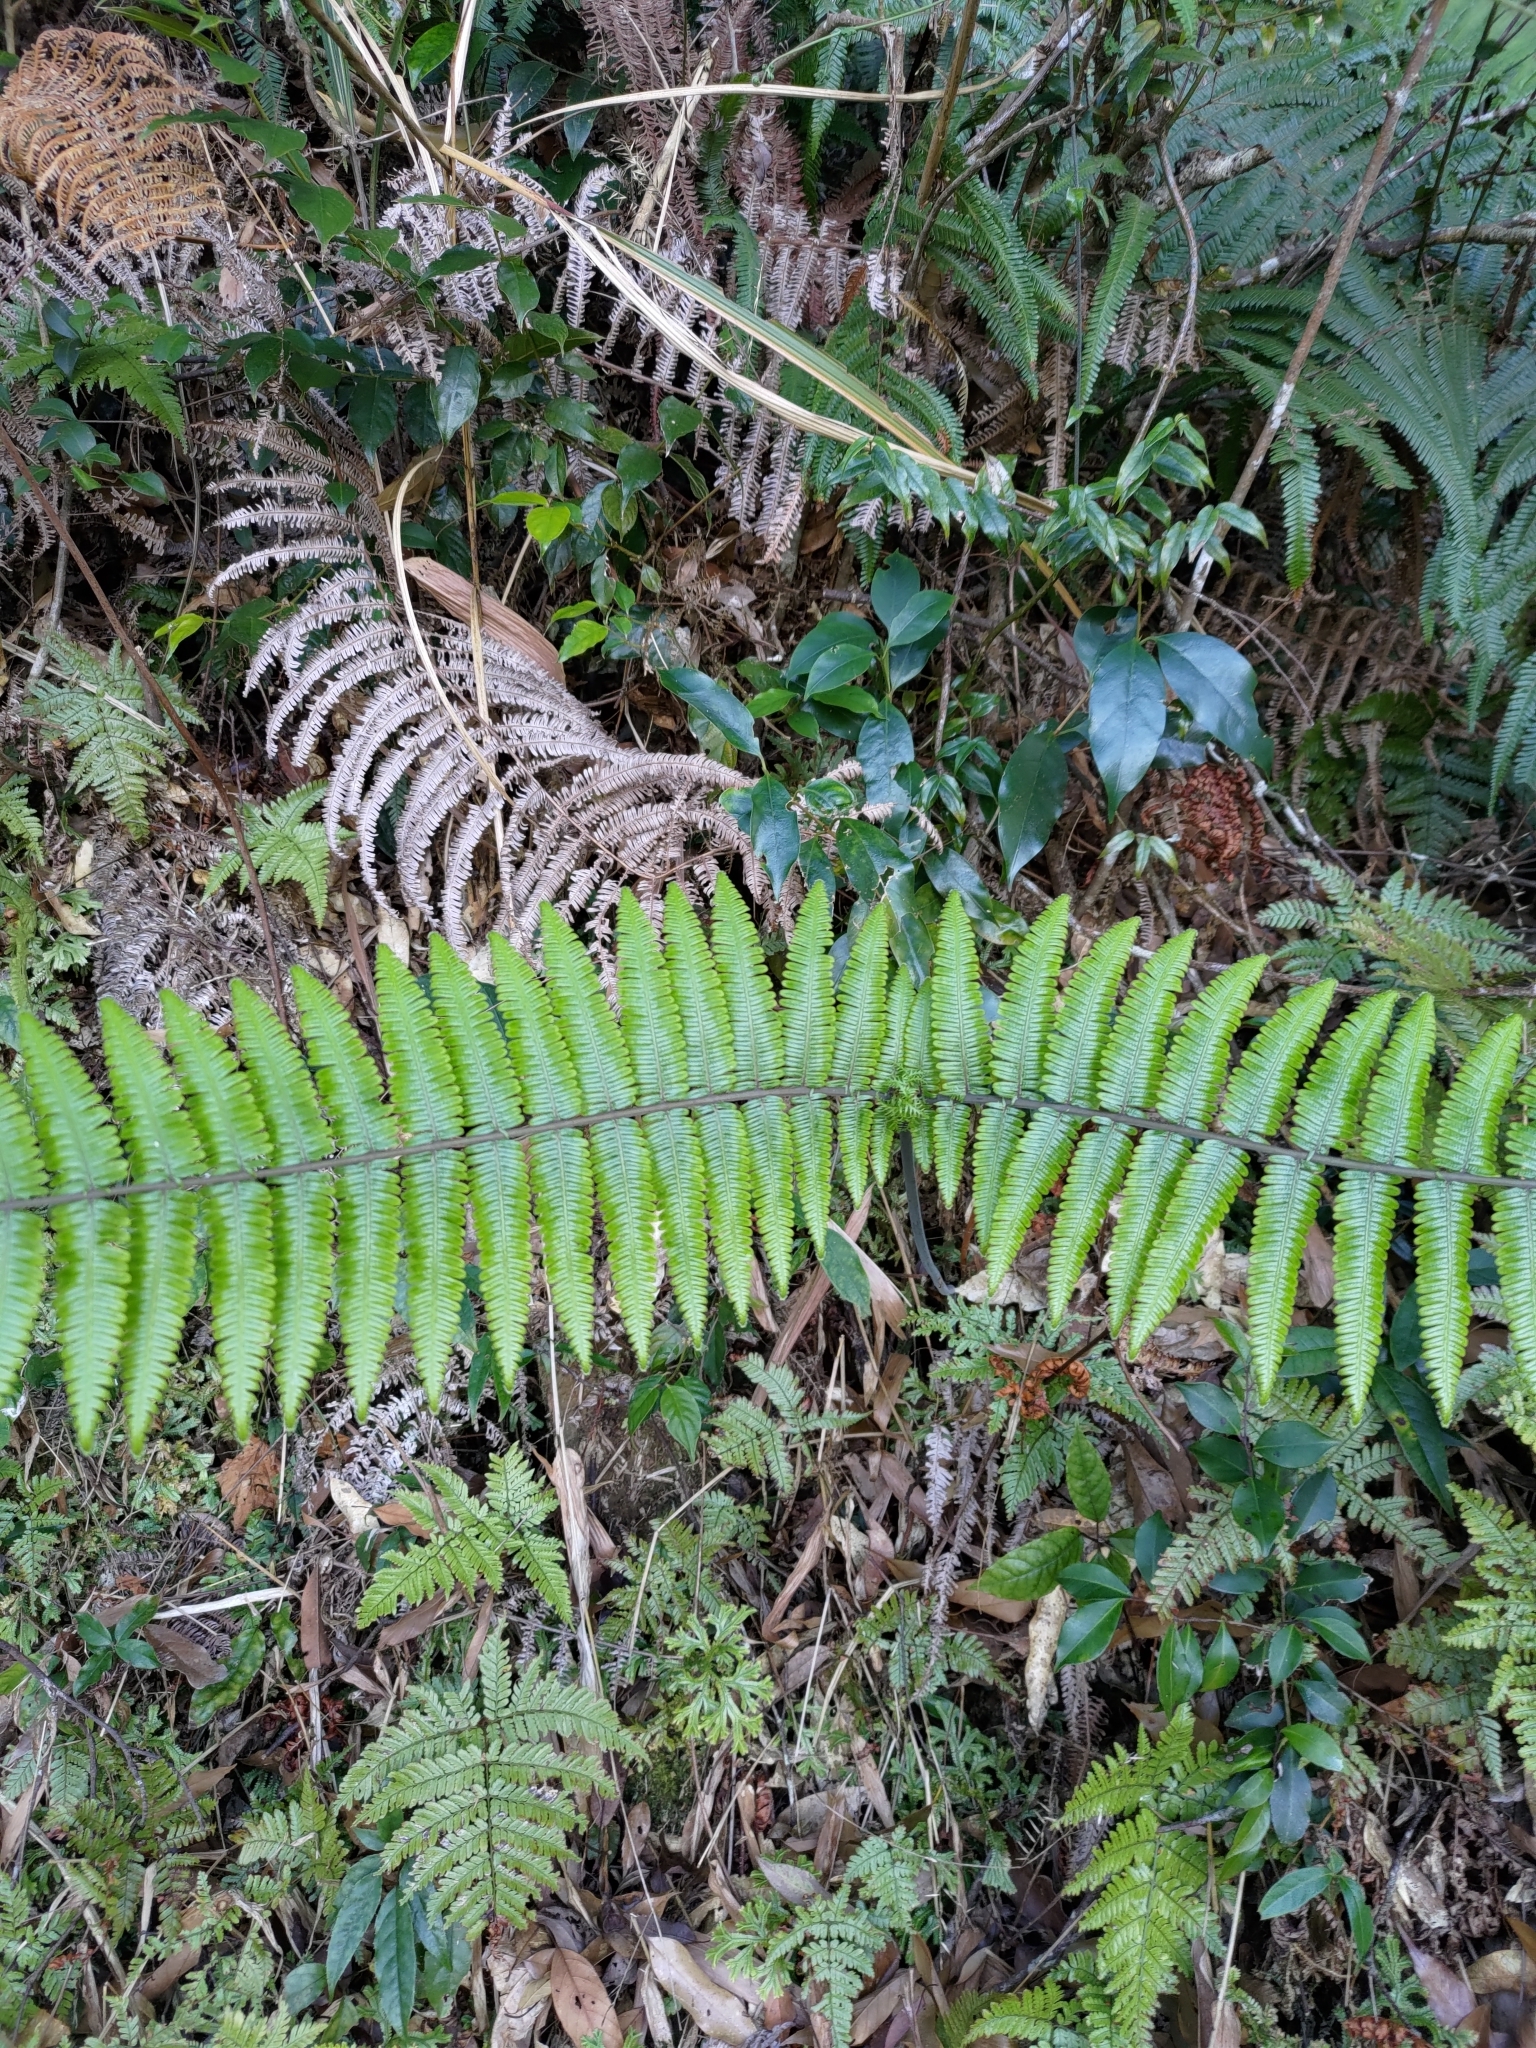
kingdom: Plantae
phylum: Tracheophyta
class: Polypodiopsida
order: Gleicheniales
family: Gleicheniaceae
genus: Diplopterygium
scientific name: Diplopterygium glaucum
